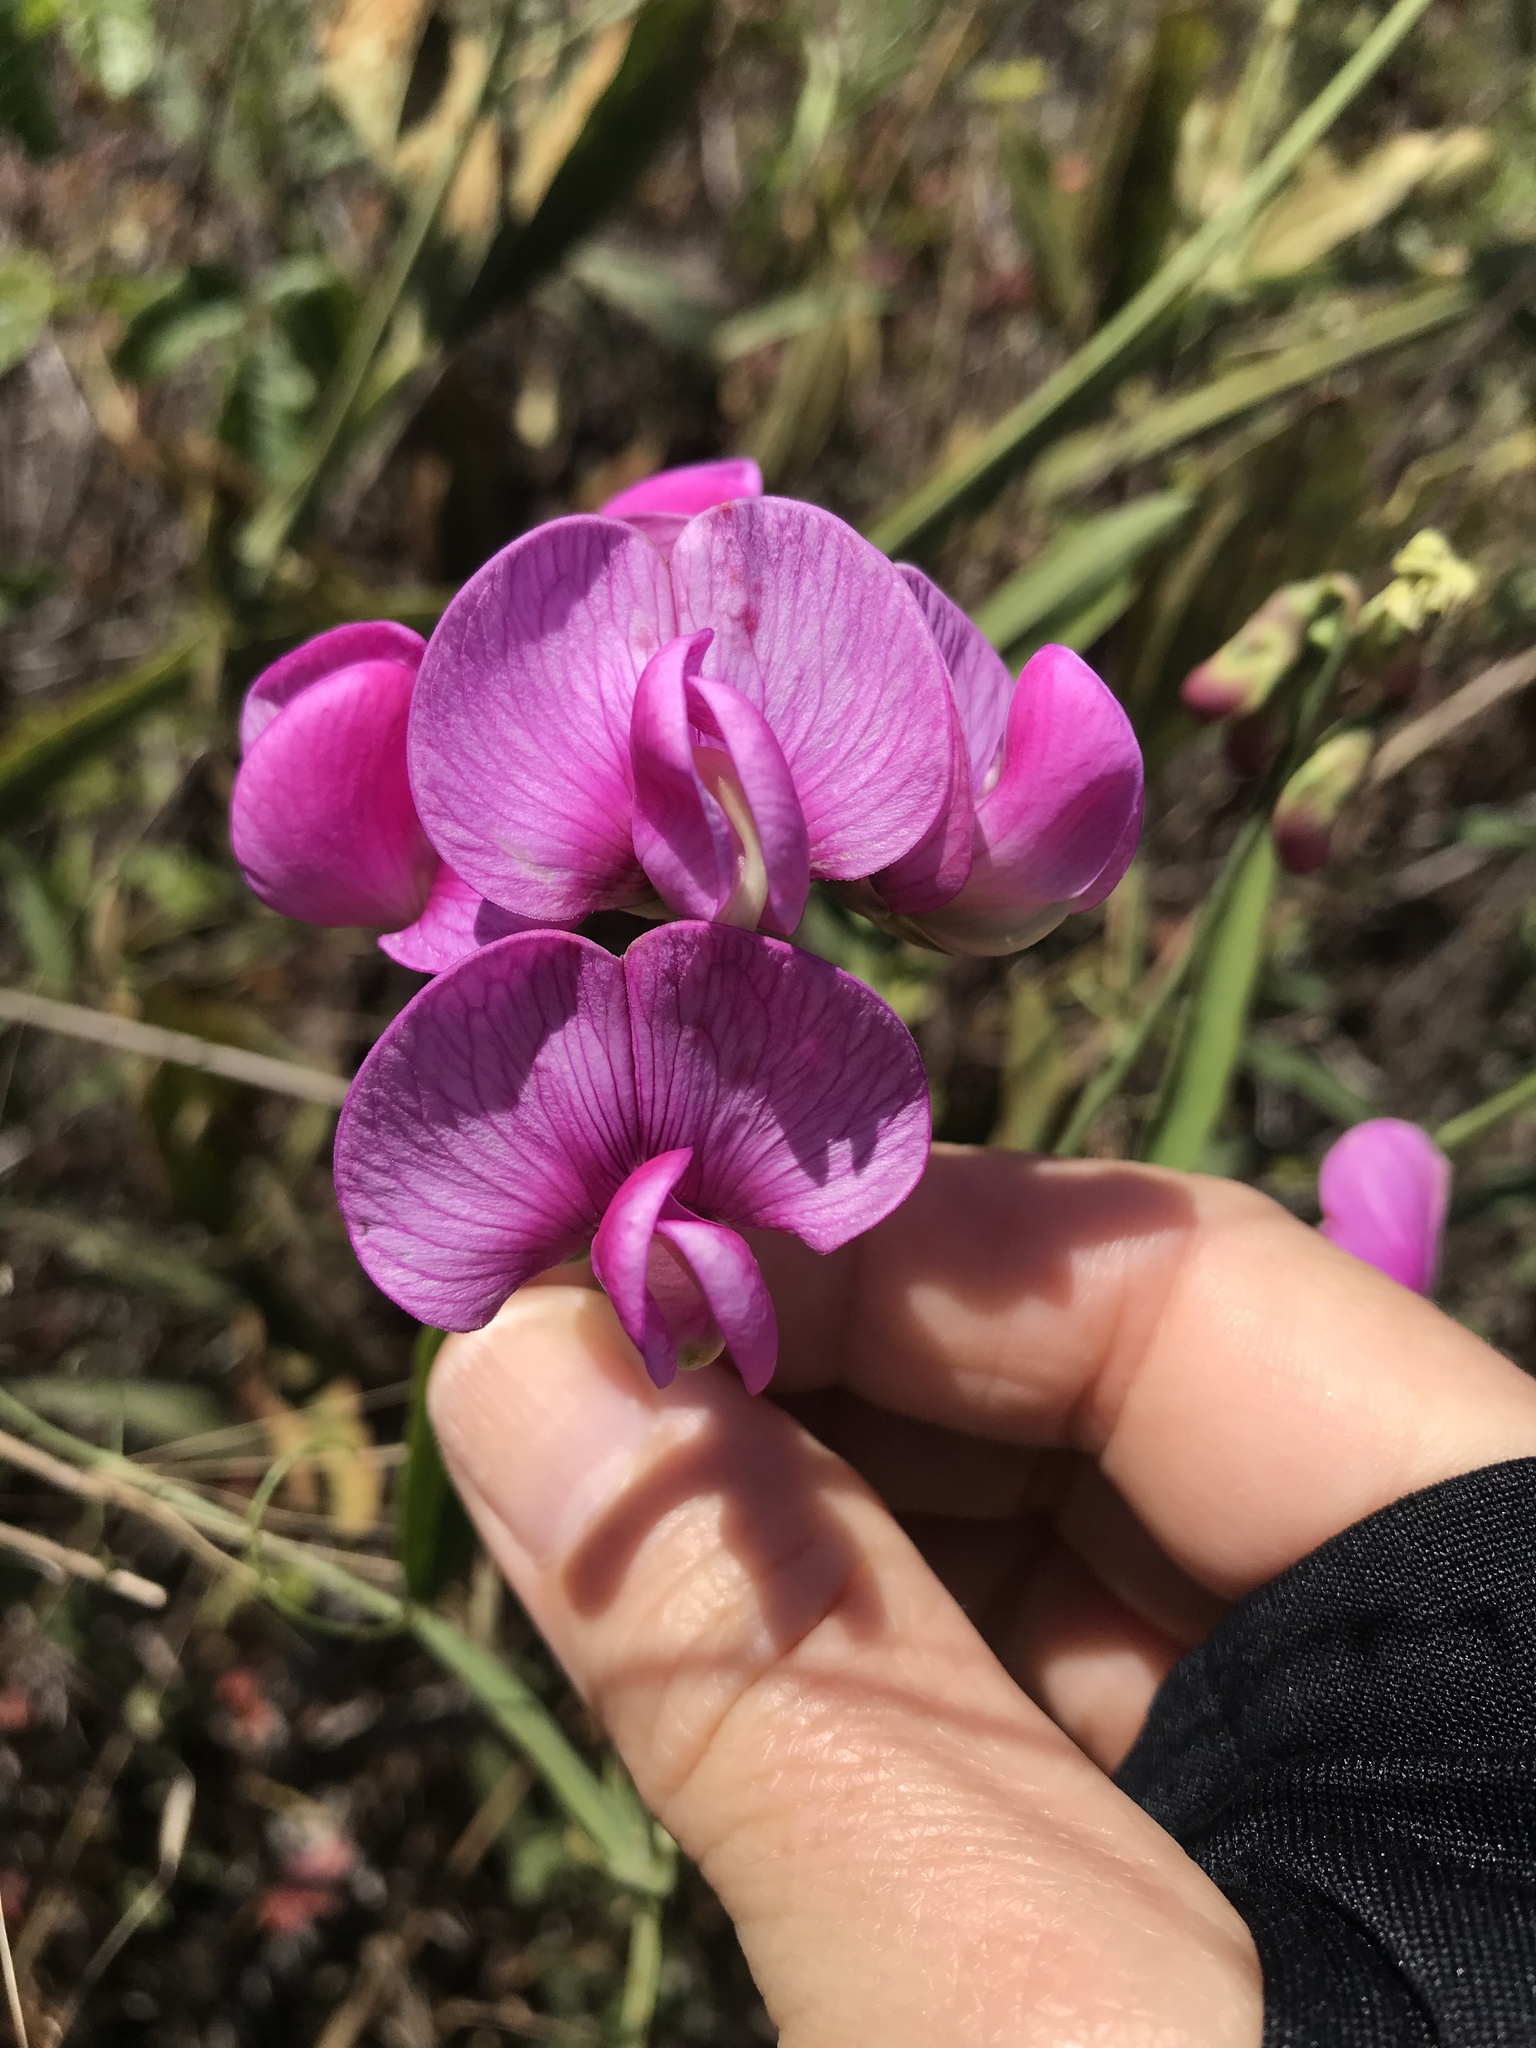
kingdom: Plantae
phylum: Tracheophyta
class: Magnoliopsida
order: Fabales
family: Fabaceae
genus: Lathyrus
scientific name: Lathyrus latifolius
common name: Perennial pea
